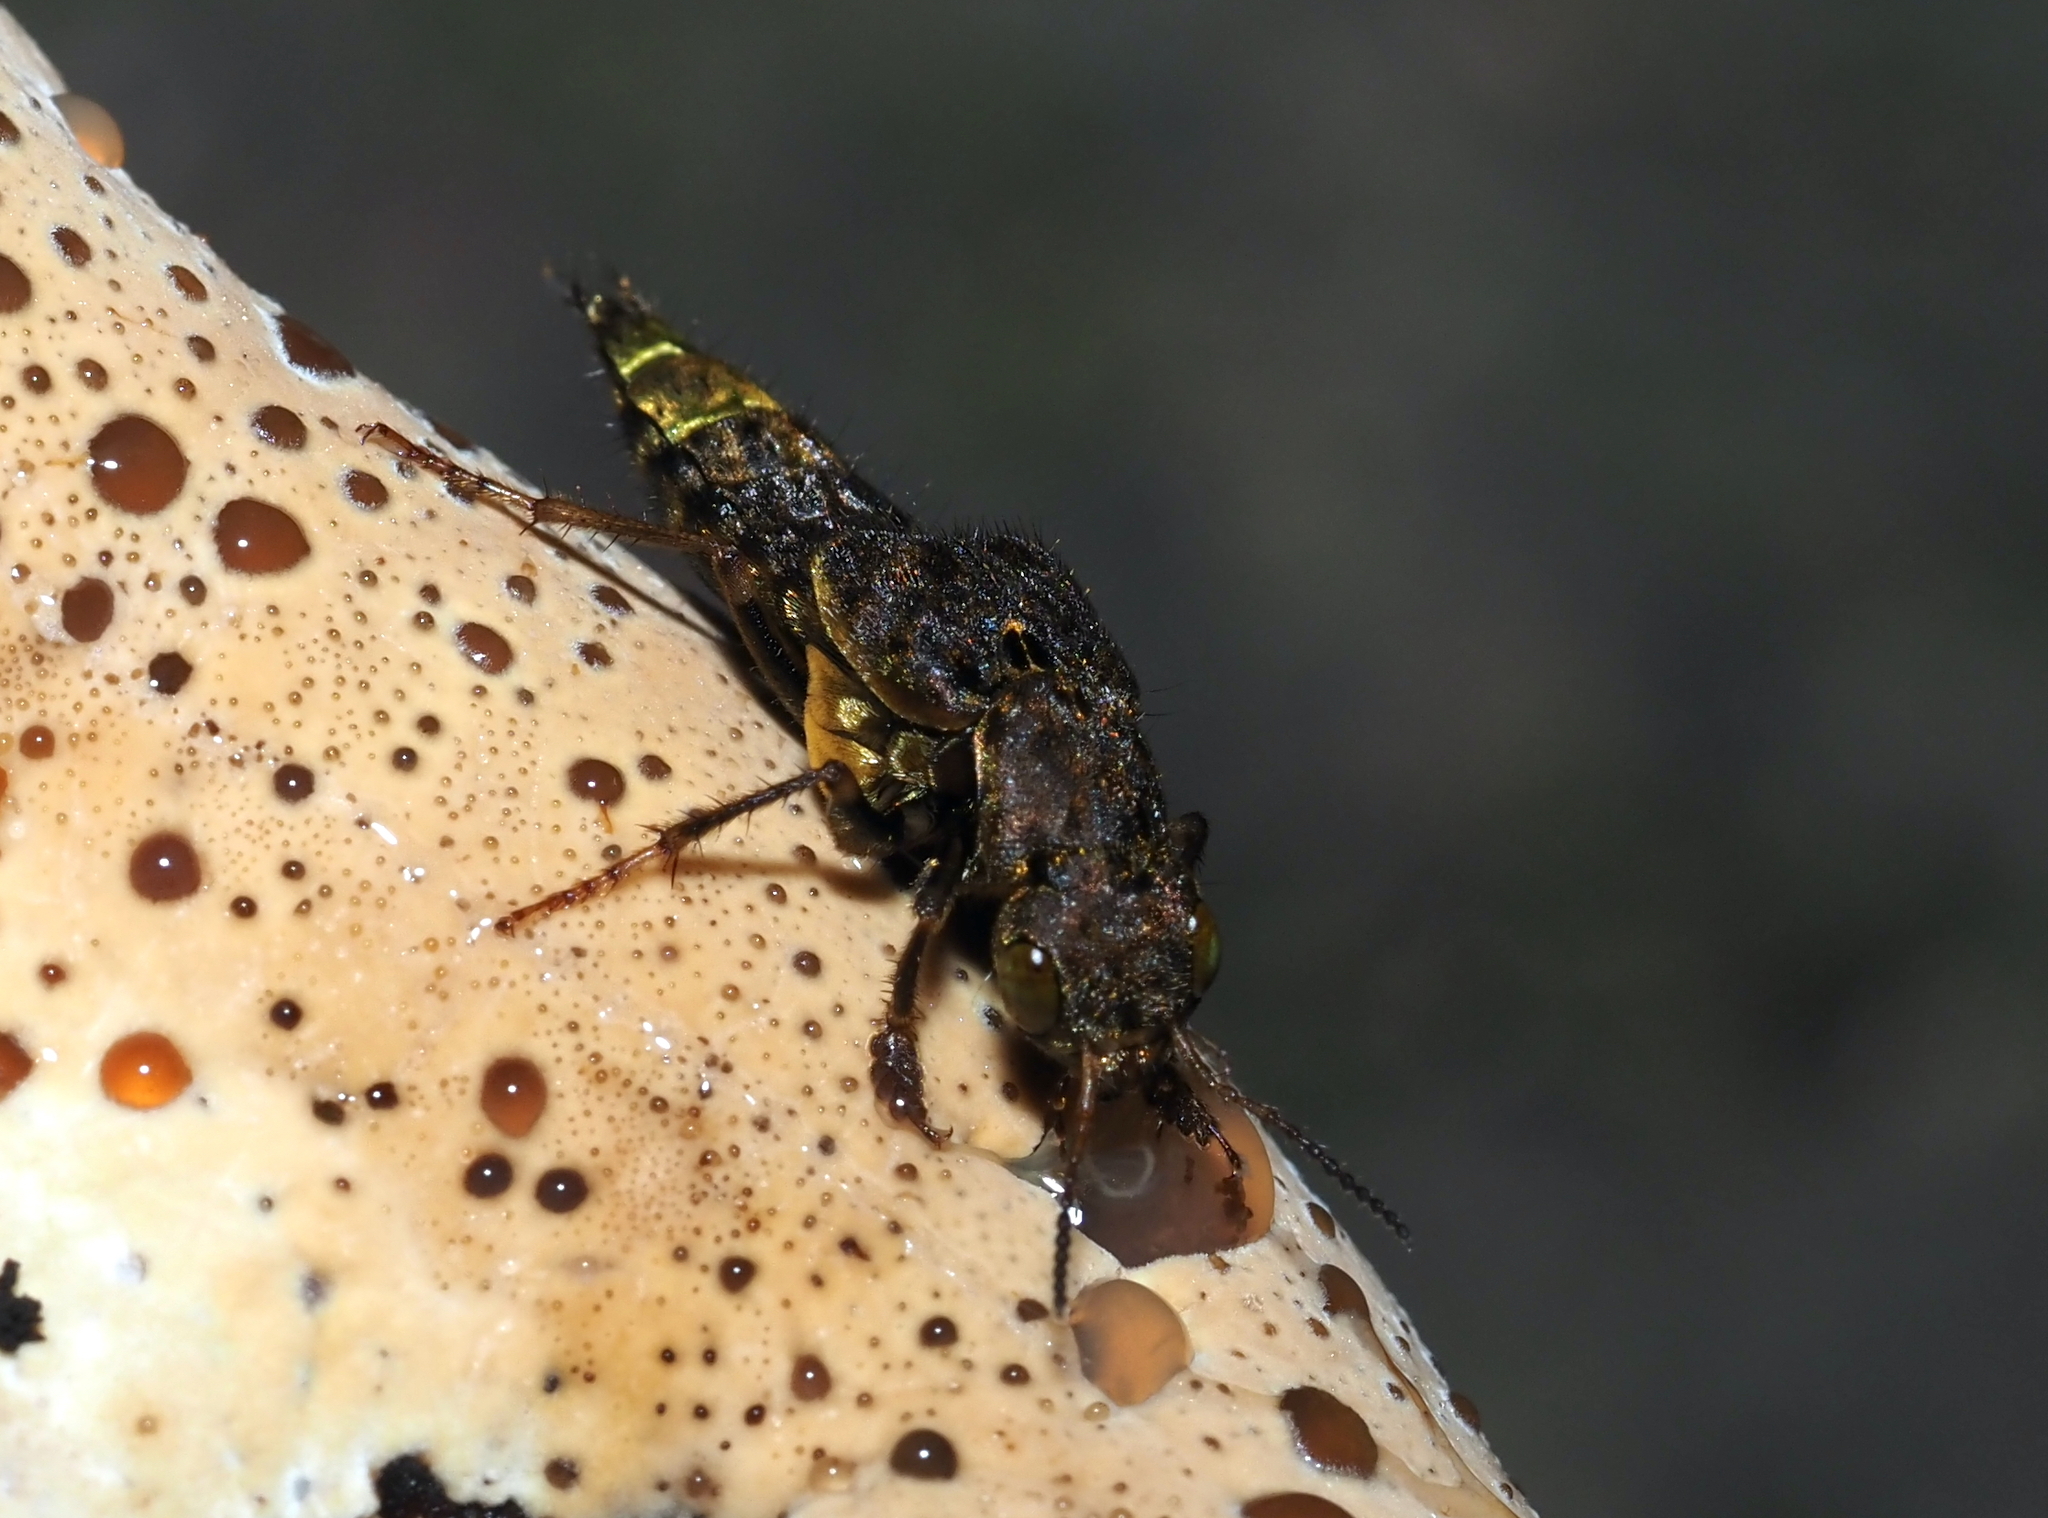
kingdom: Animalia
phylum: Arthropoda
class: Insecta
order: Coleoptera
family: Staphylinidae
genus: Ontholestes
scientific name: Ontholestes cingulatus
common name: Gold-and-brown rove beetle
